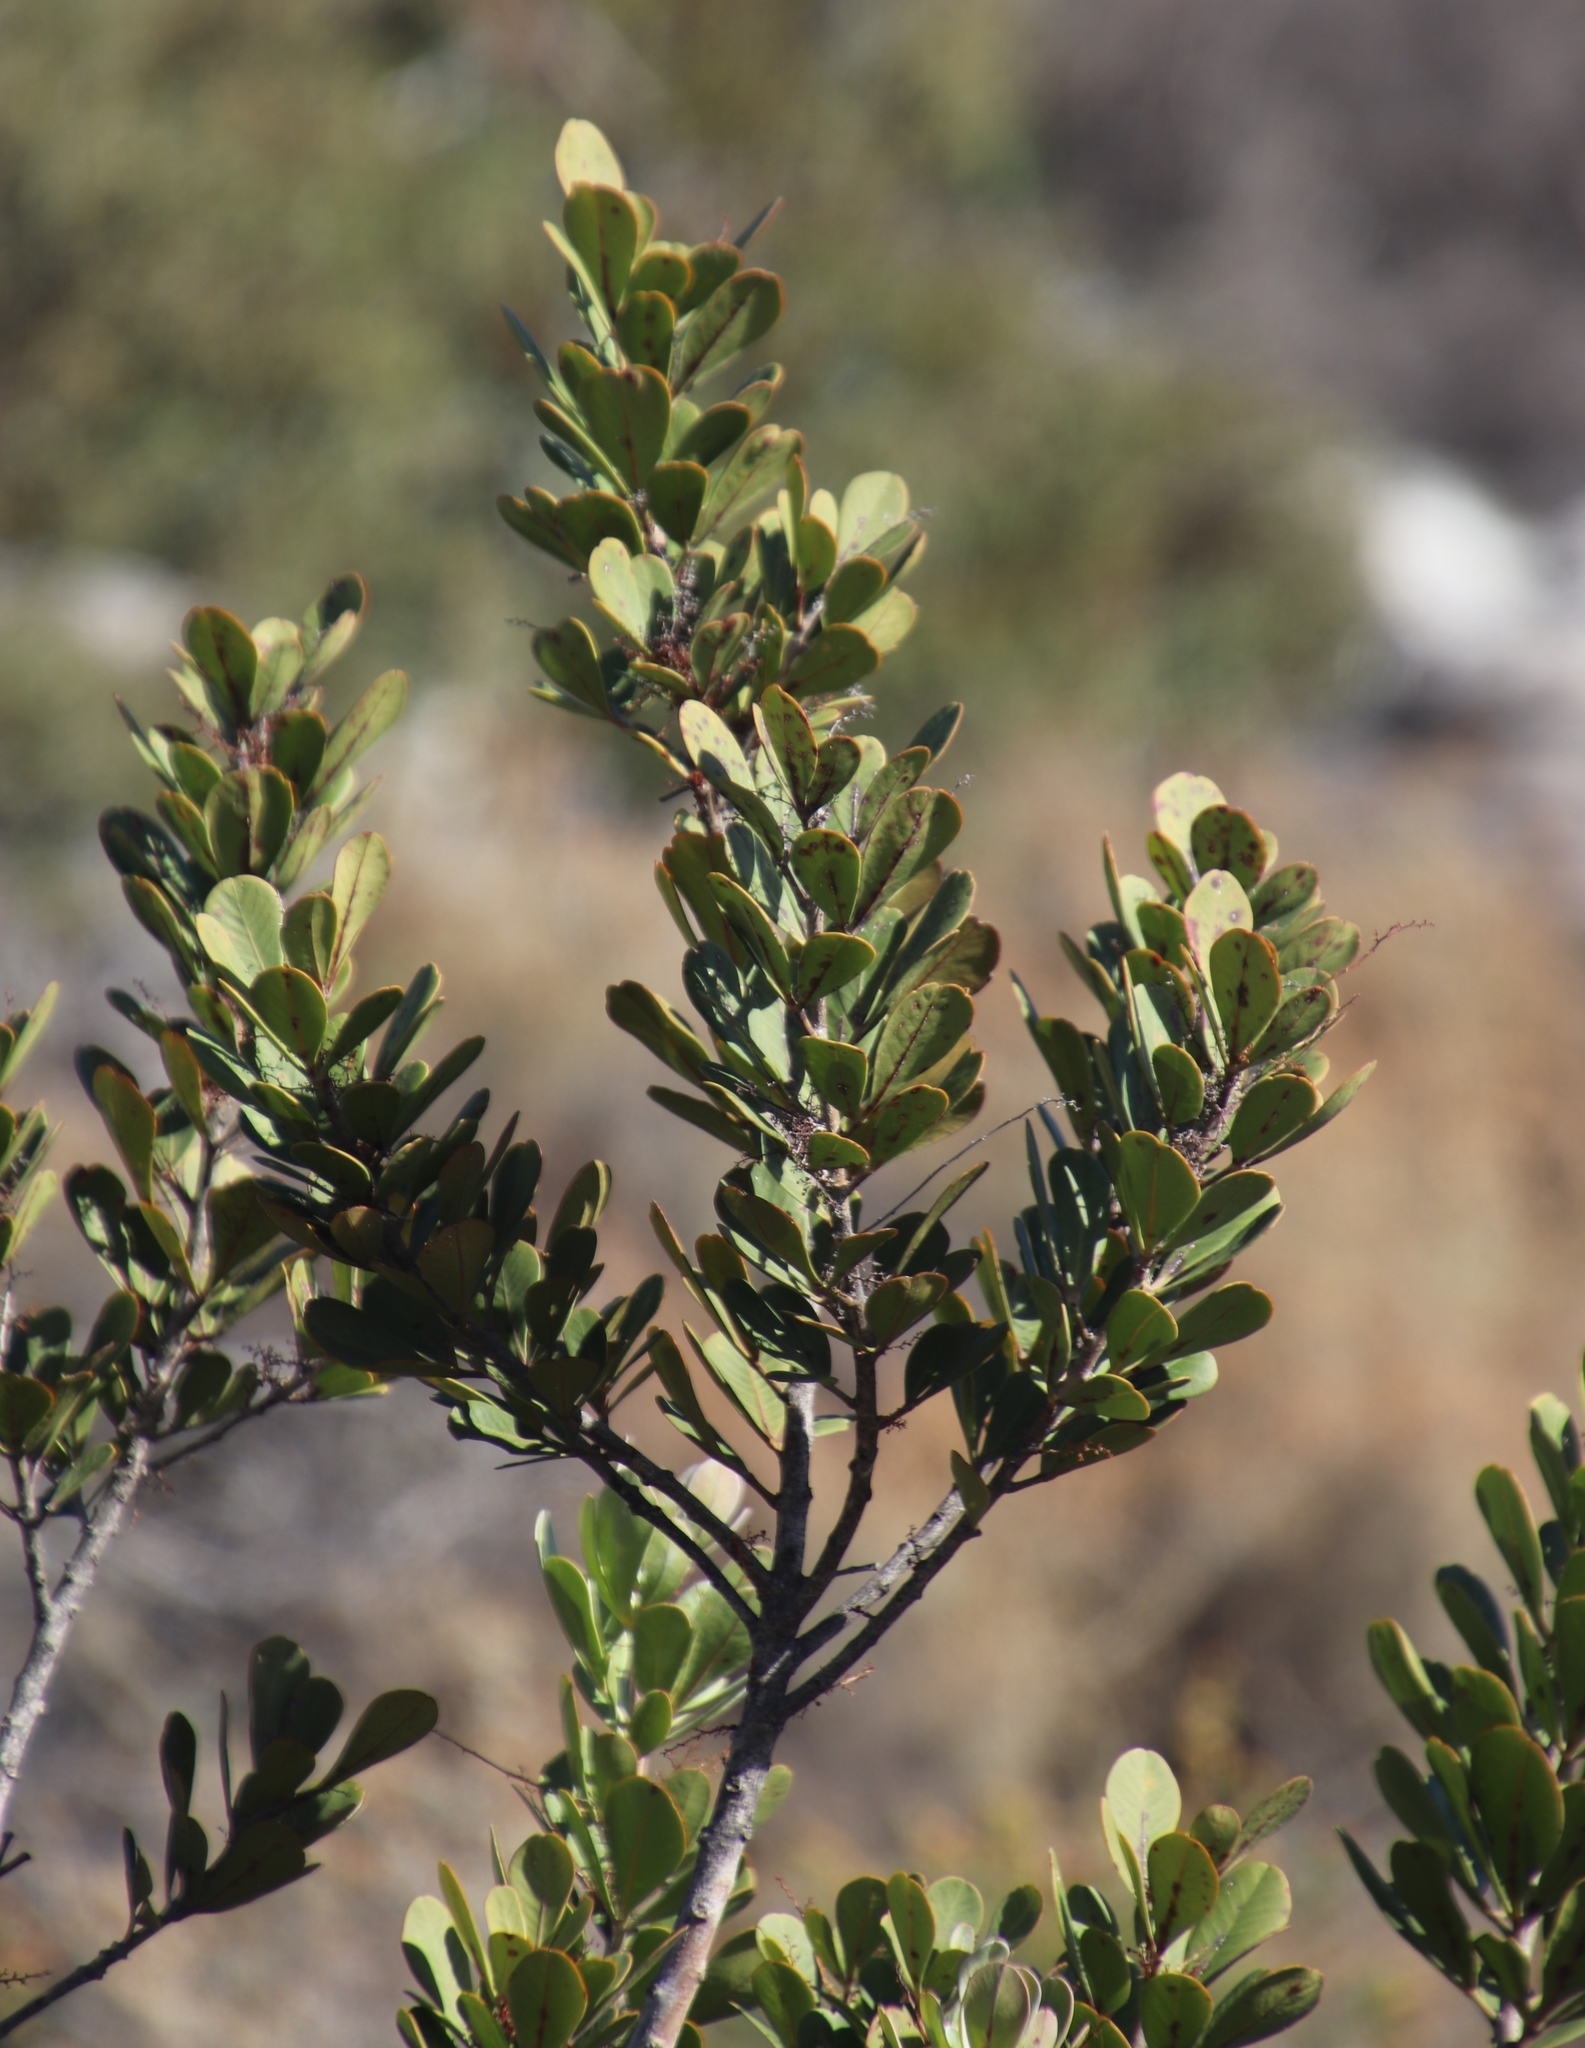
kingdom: Plantae
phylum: Tracheophyta
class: Magnoliopsida
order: Sapindales
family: Anacardiaceae
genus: Searsia
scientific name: Searsia scytophylla
